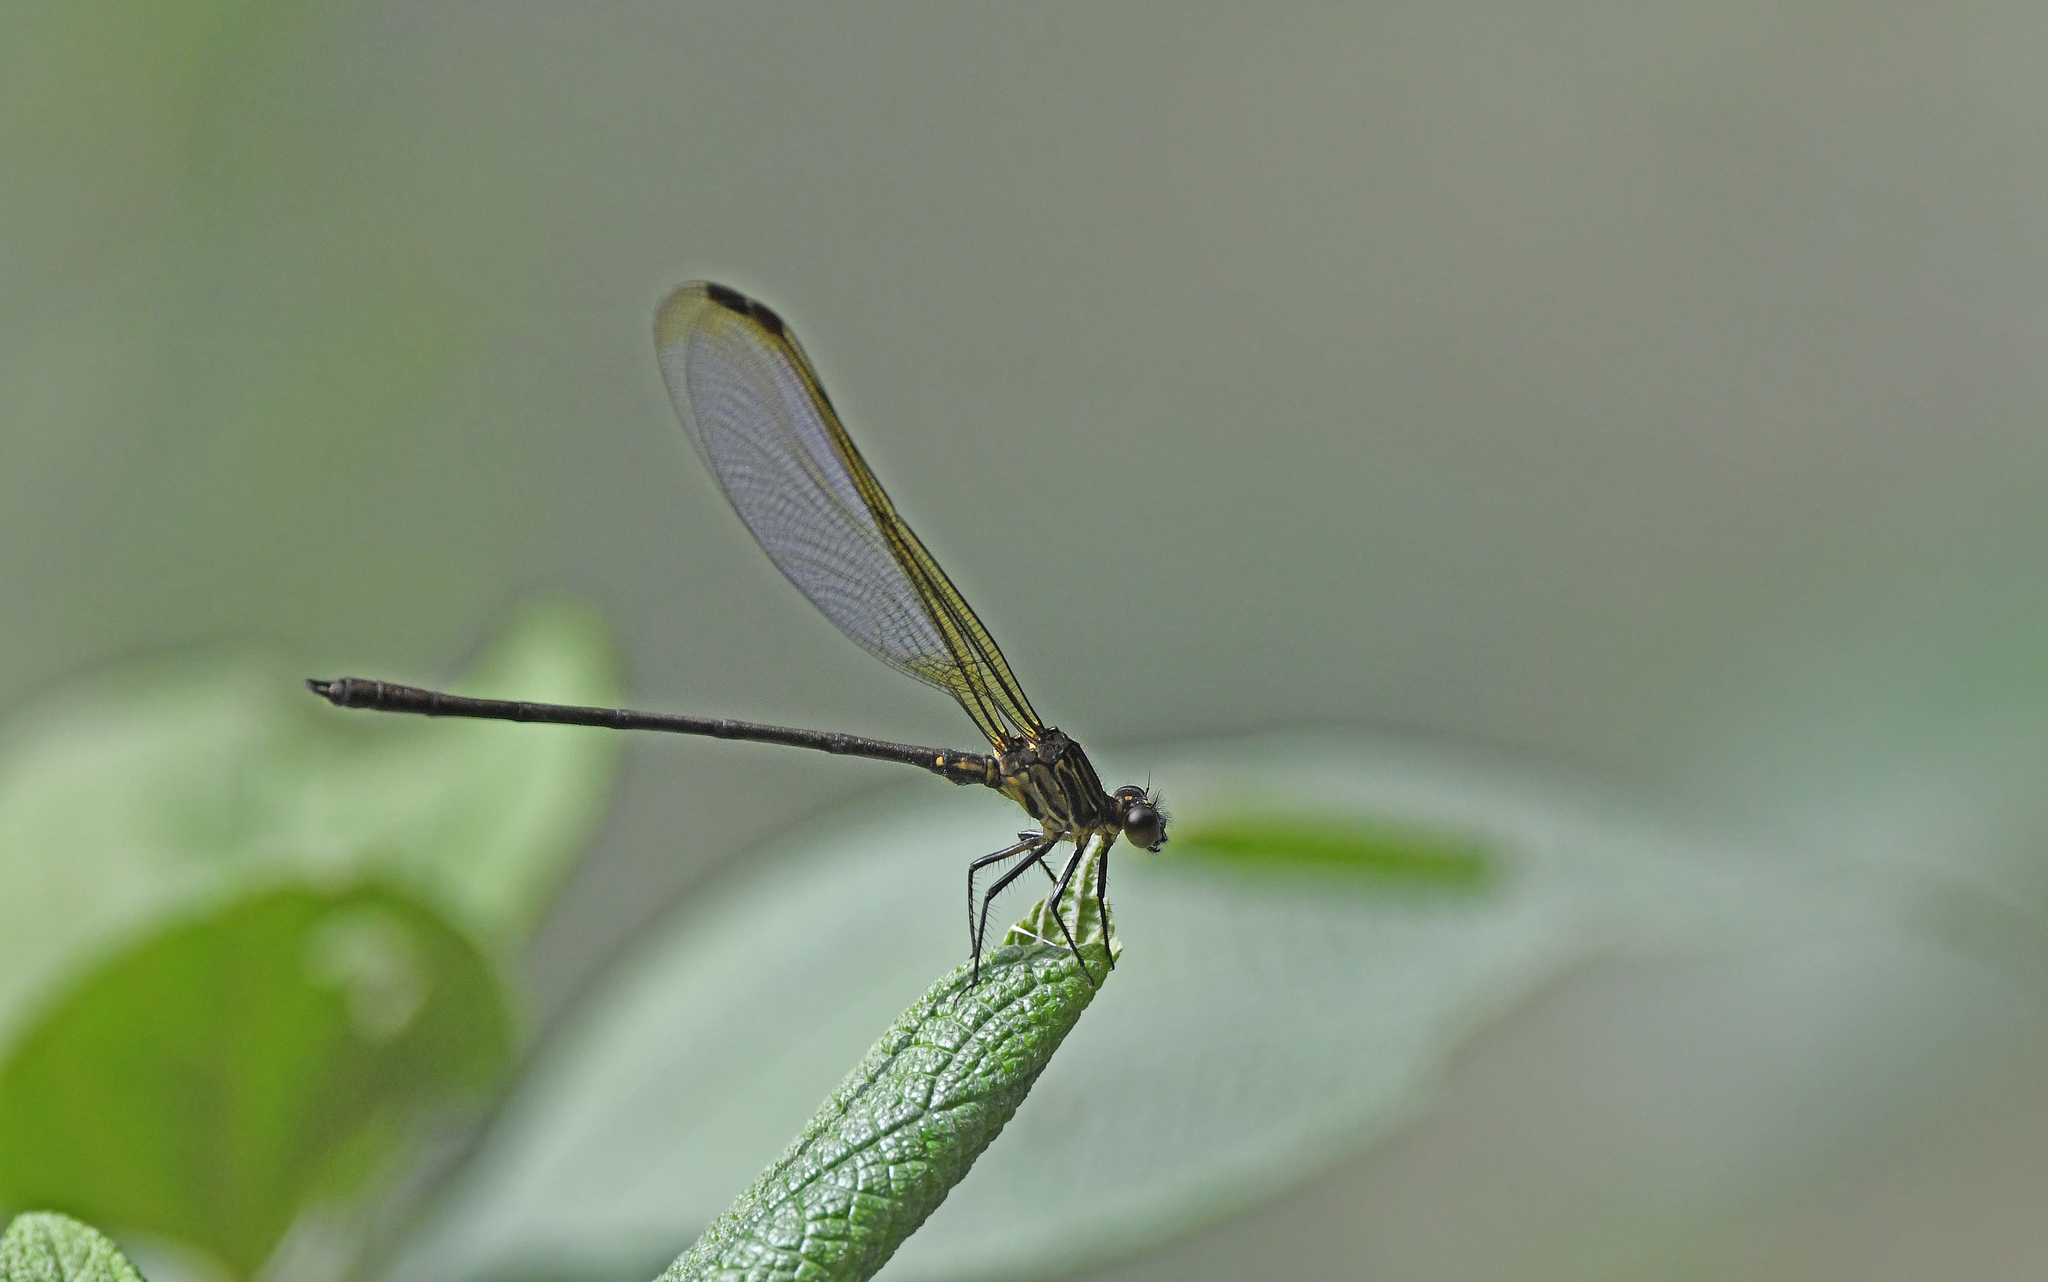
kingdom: Animalia
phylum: Arthropoda
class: Insecta
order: Odonata
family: Polythoridae
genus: Euthore
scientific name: Euthore terminalis
